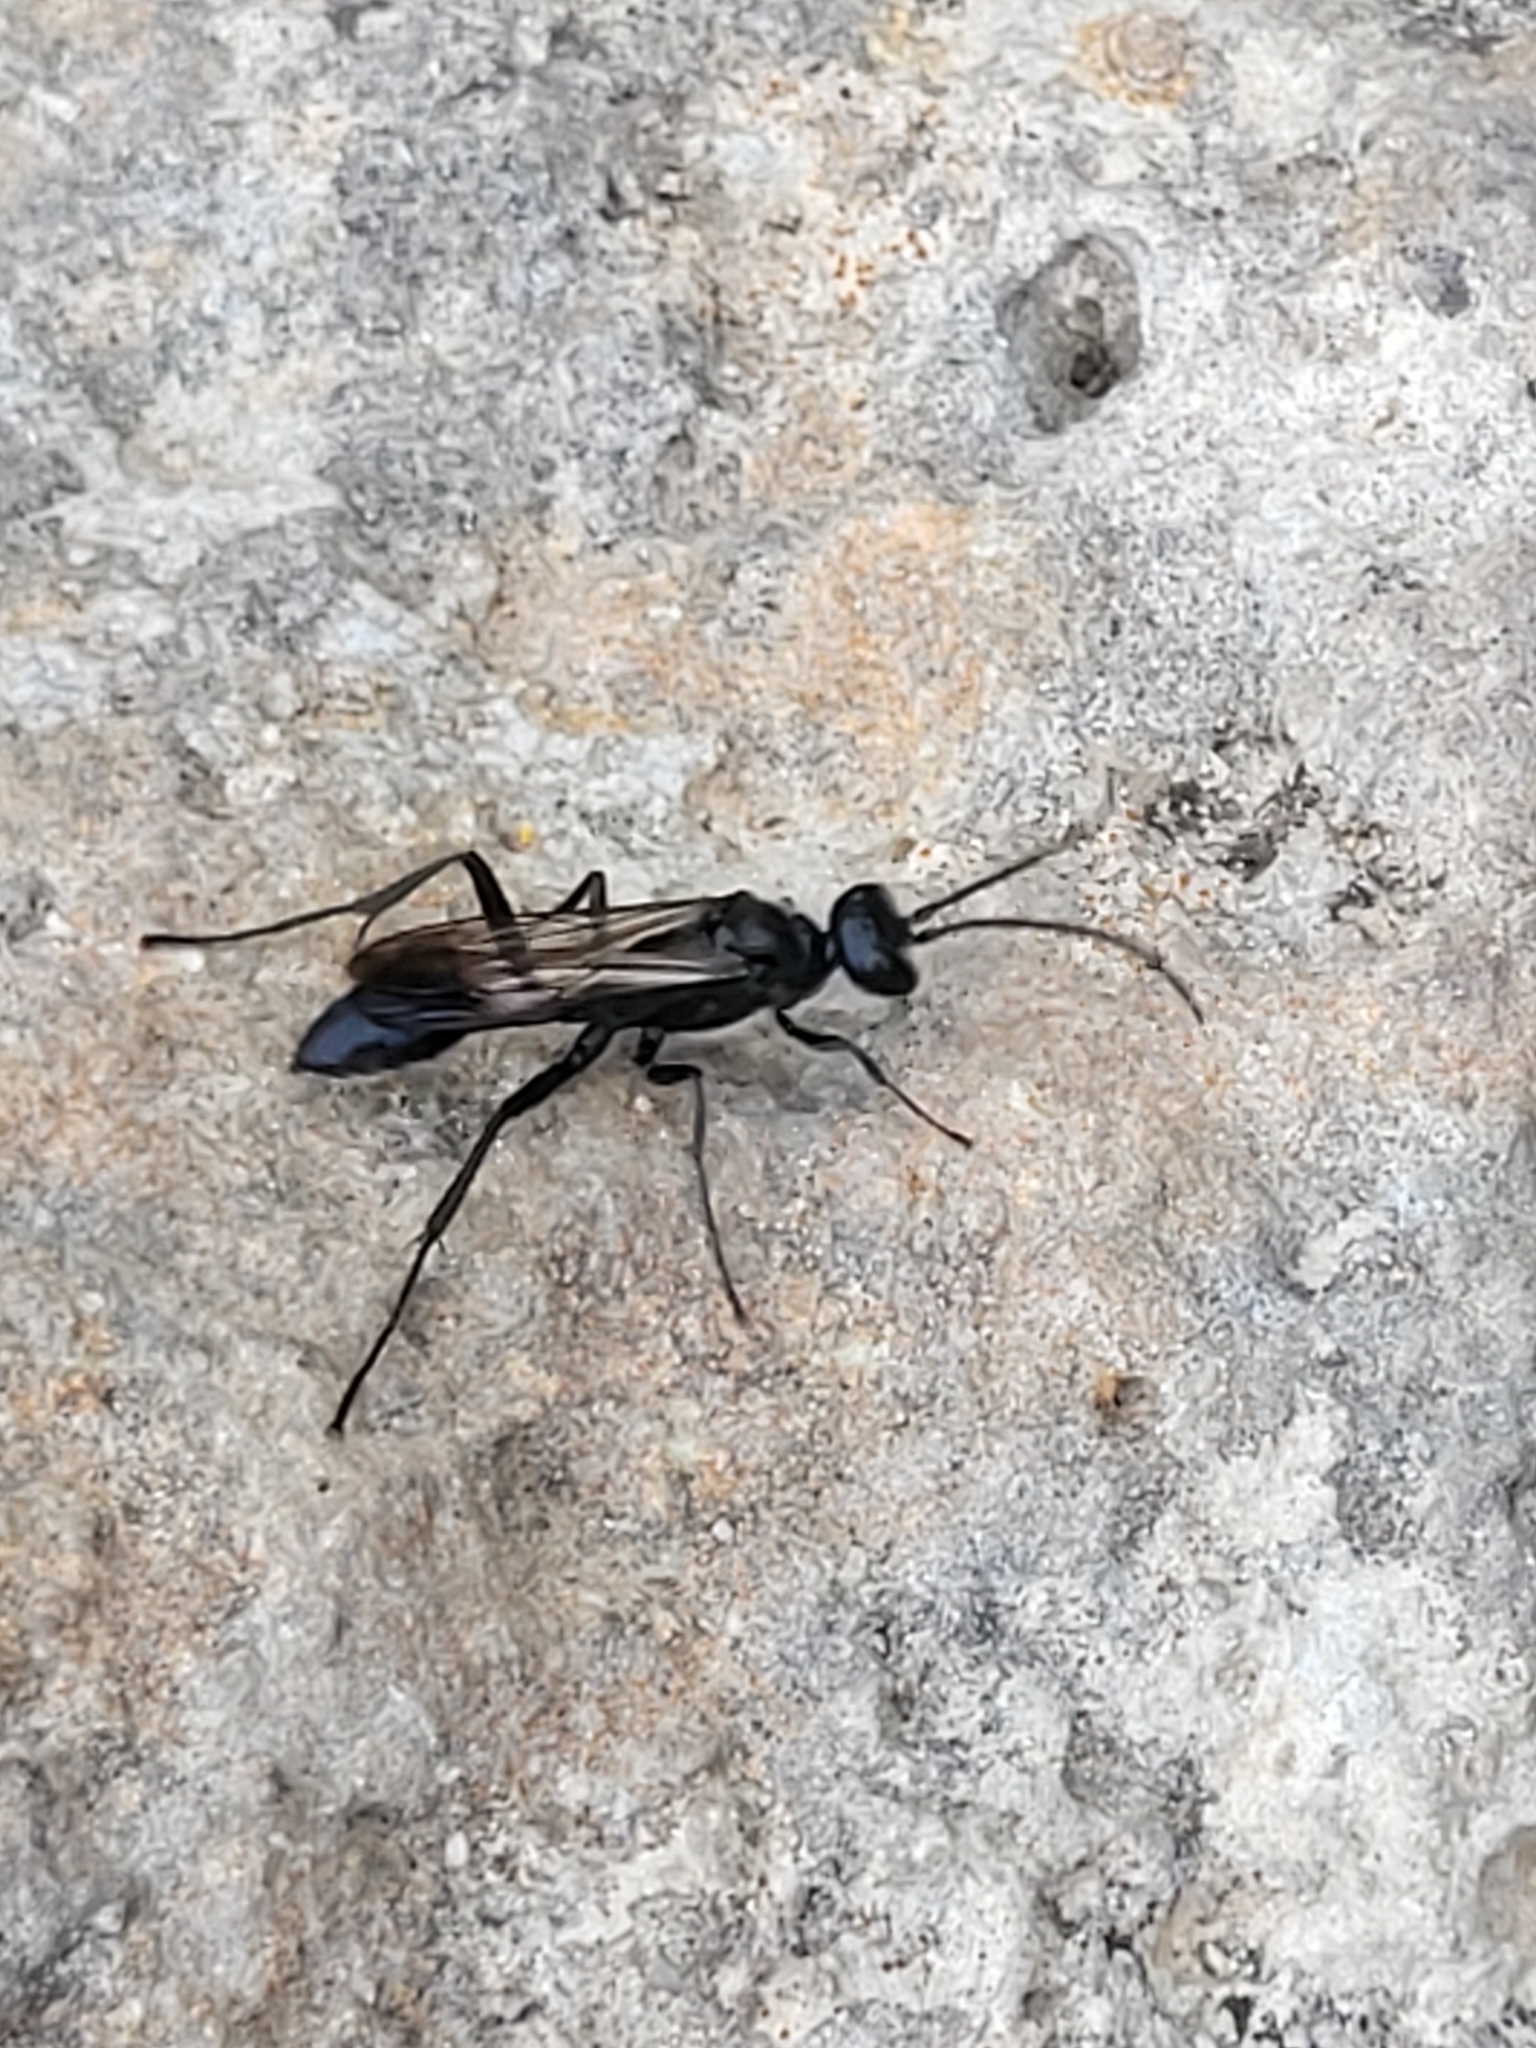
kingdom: Animalia
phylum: Arthropoda
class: Insecta
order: Hymenoptera
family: Sphecidae
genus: Chalybion
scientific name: Chalybion
